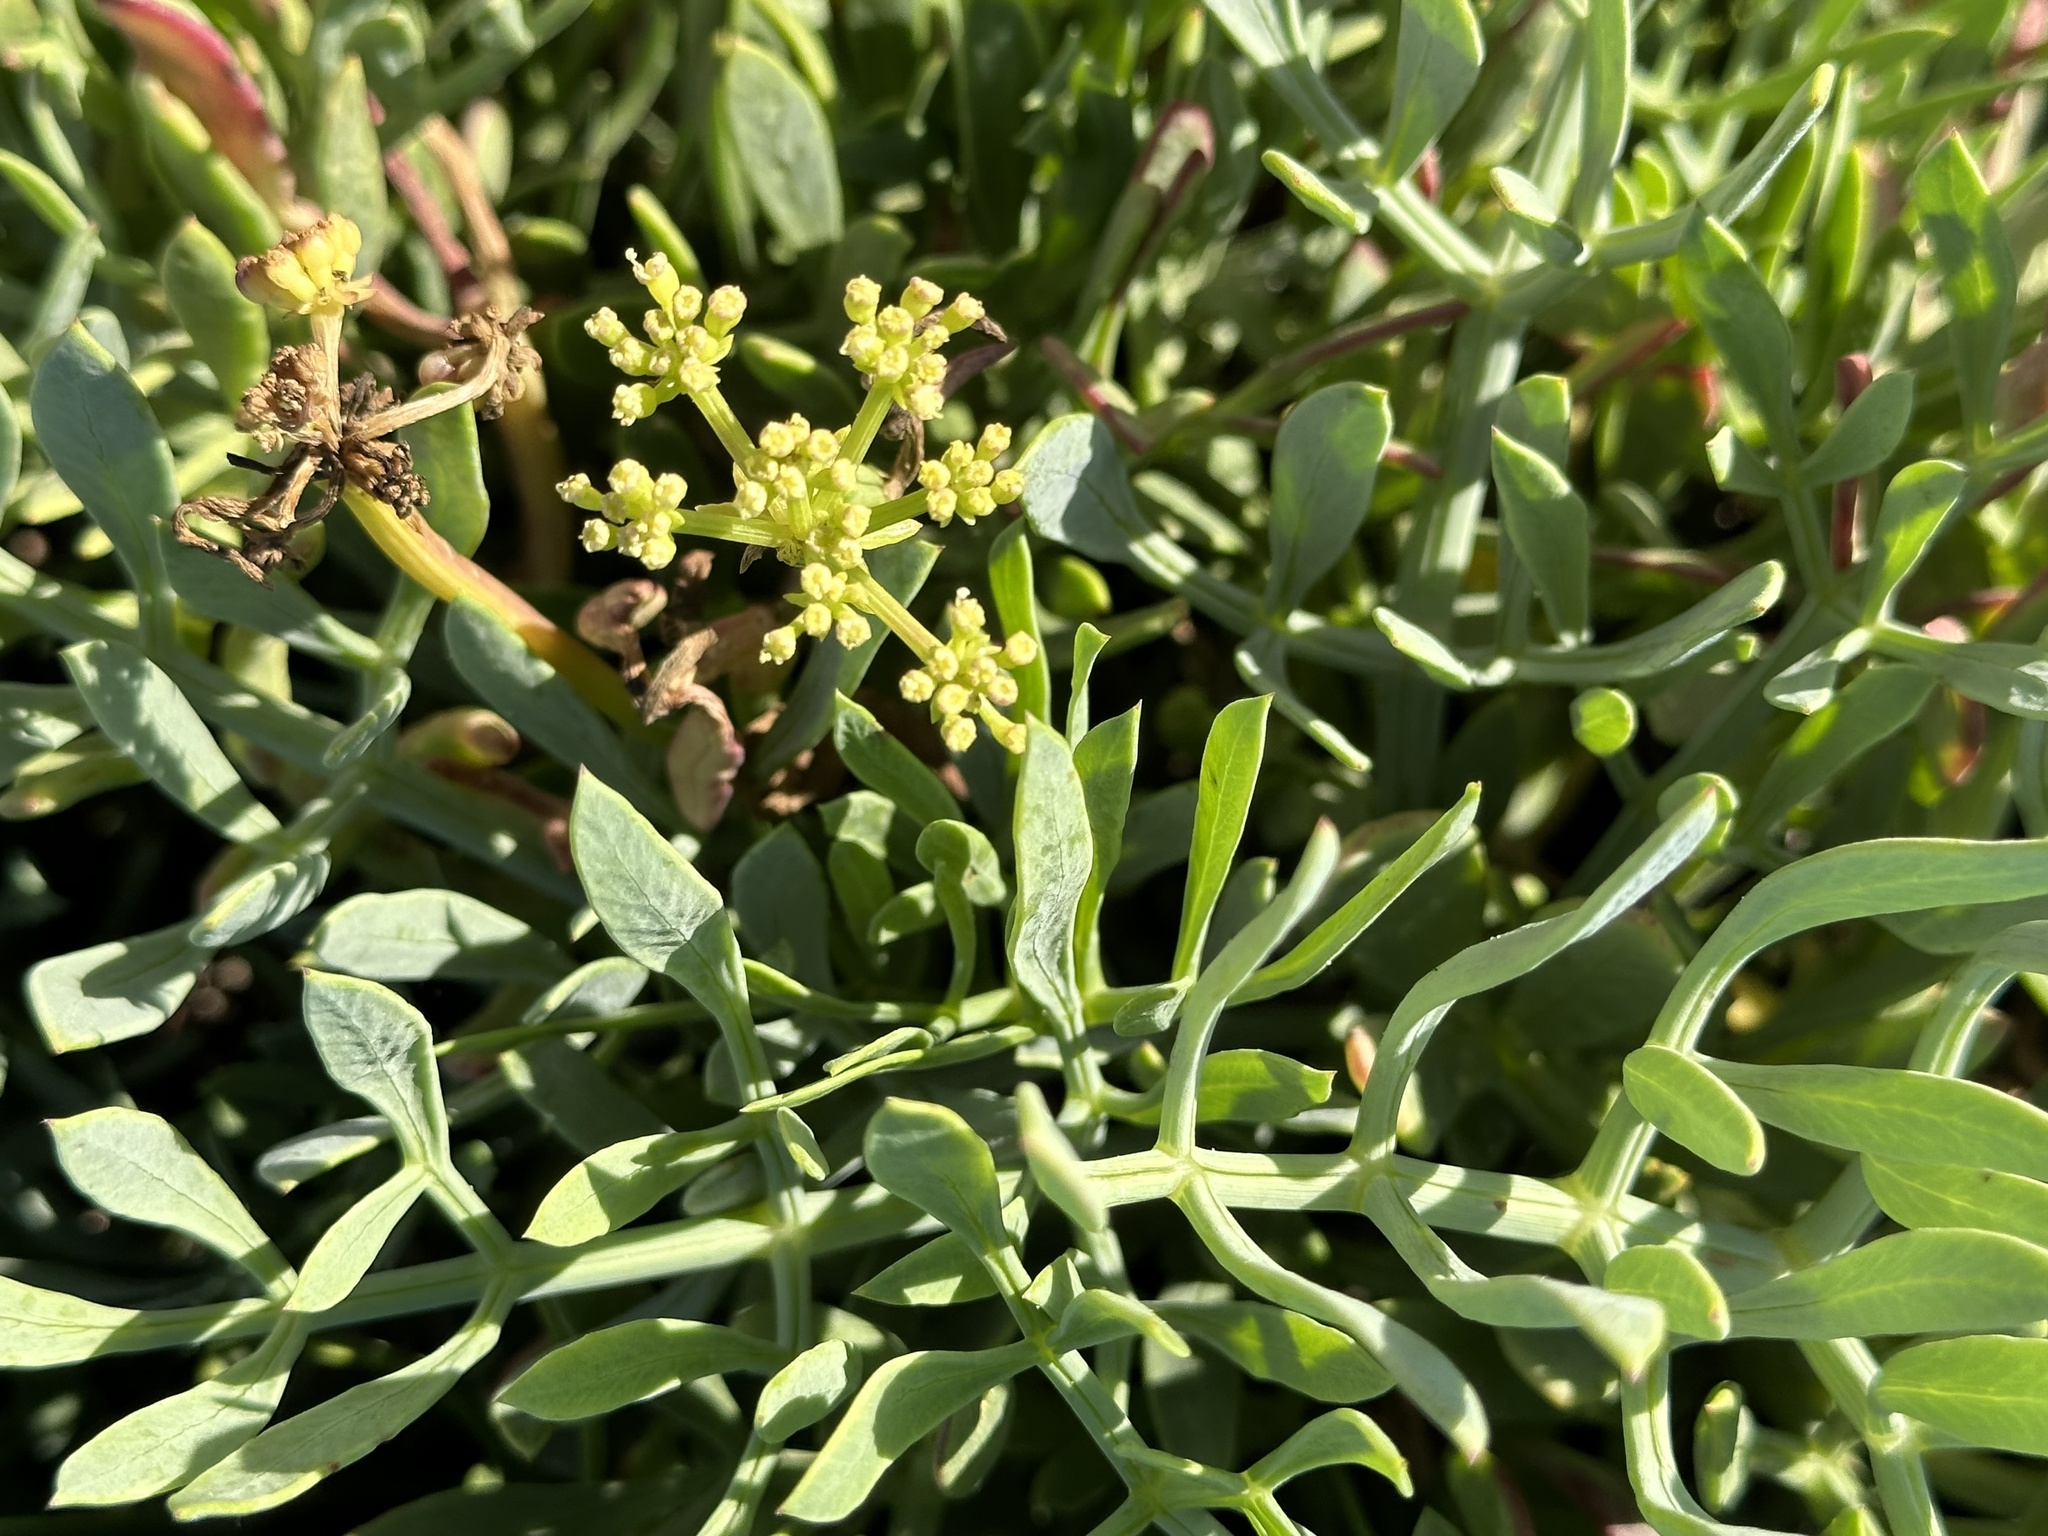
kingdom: Plantae
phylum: Tracheophyta
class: Magnoliopsida
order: Apiales
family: Apiaceae
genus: Crithmum
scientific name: Crithmum maritimum
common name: Rock samphire
